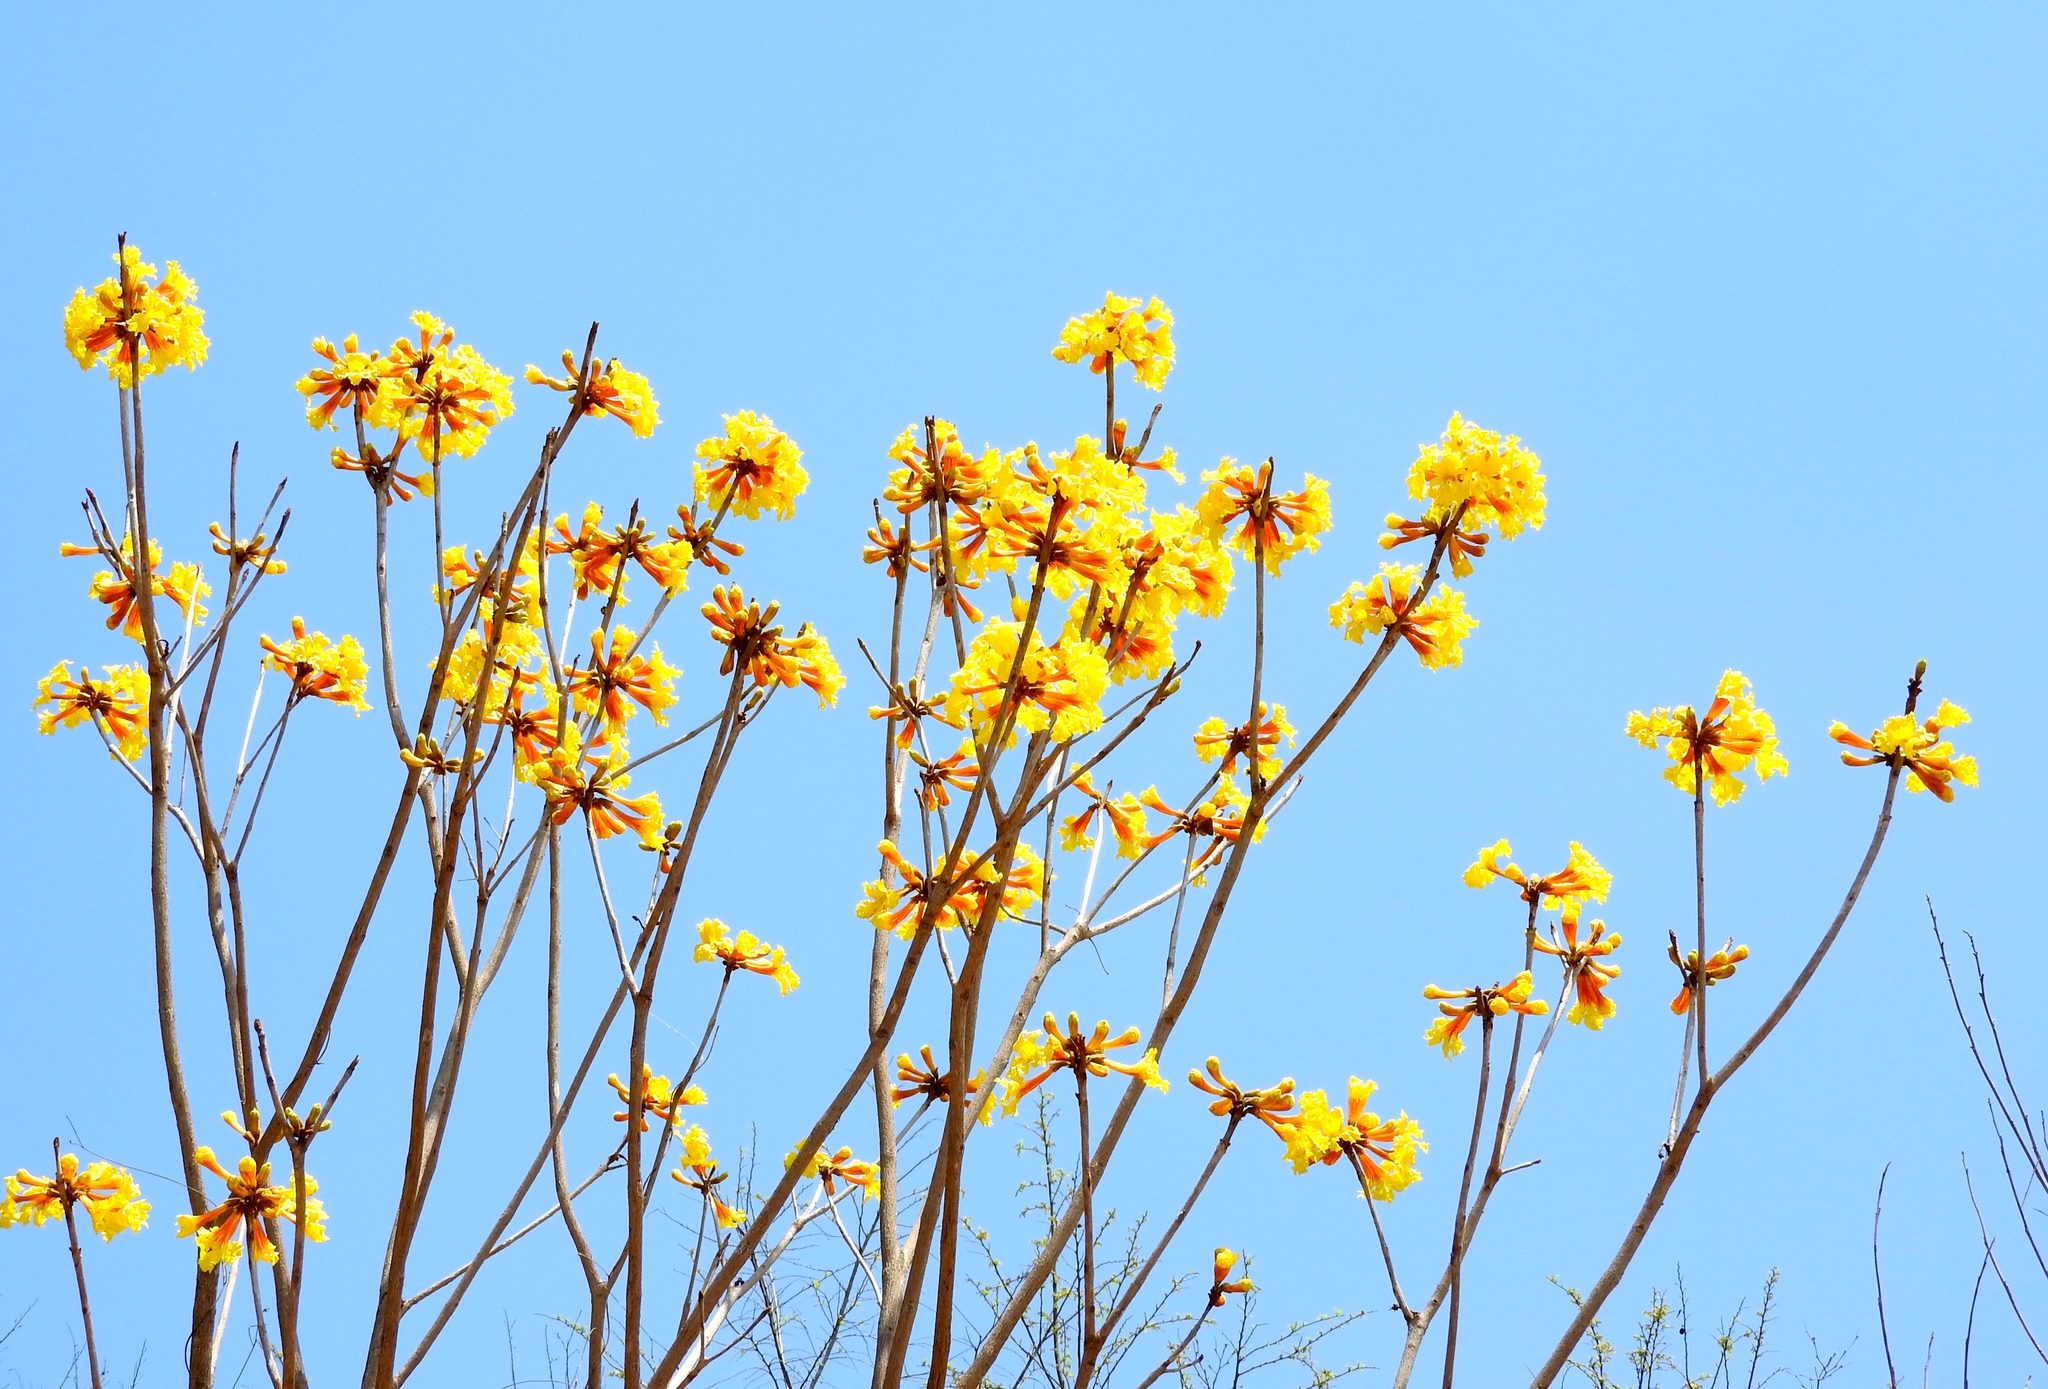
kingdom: Plantae
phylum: Tracheophyta
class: Magnoliopsida
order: Lamiales
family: Bignoniaceae
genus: Handroanthus
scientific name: Handroanthus chrysanthus
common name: Trumpet trees
